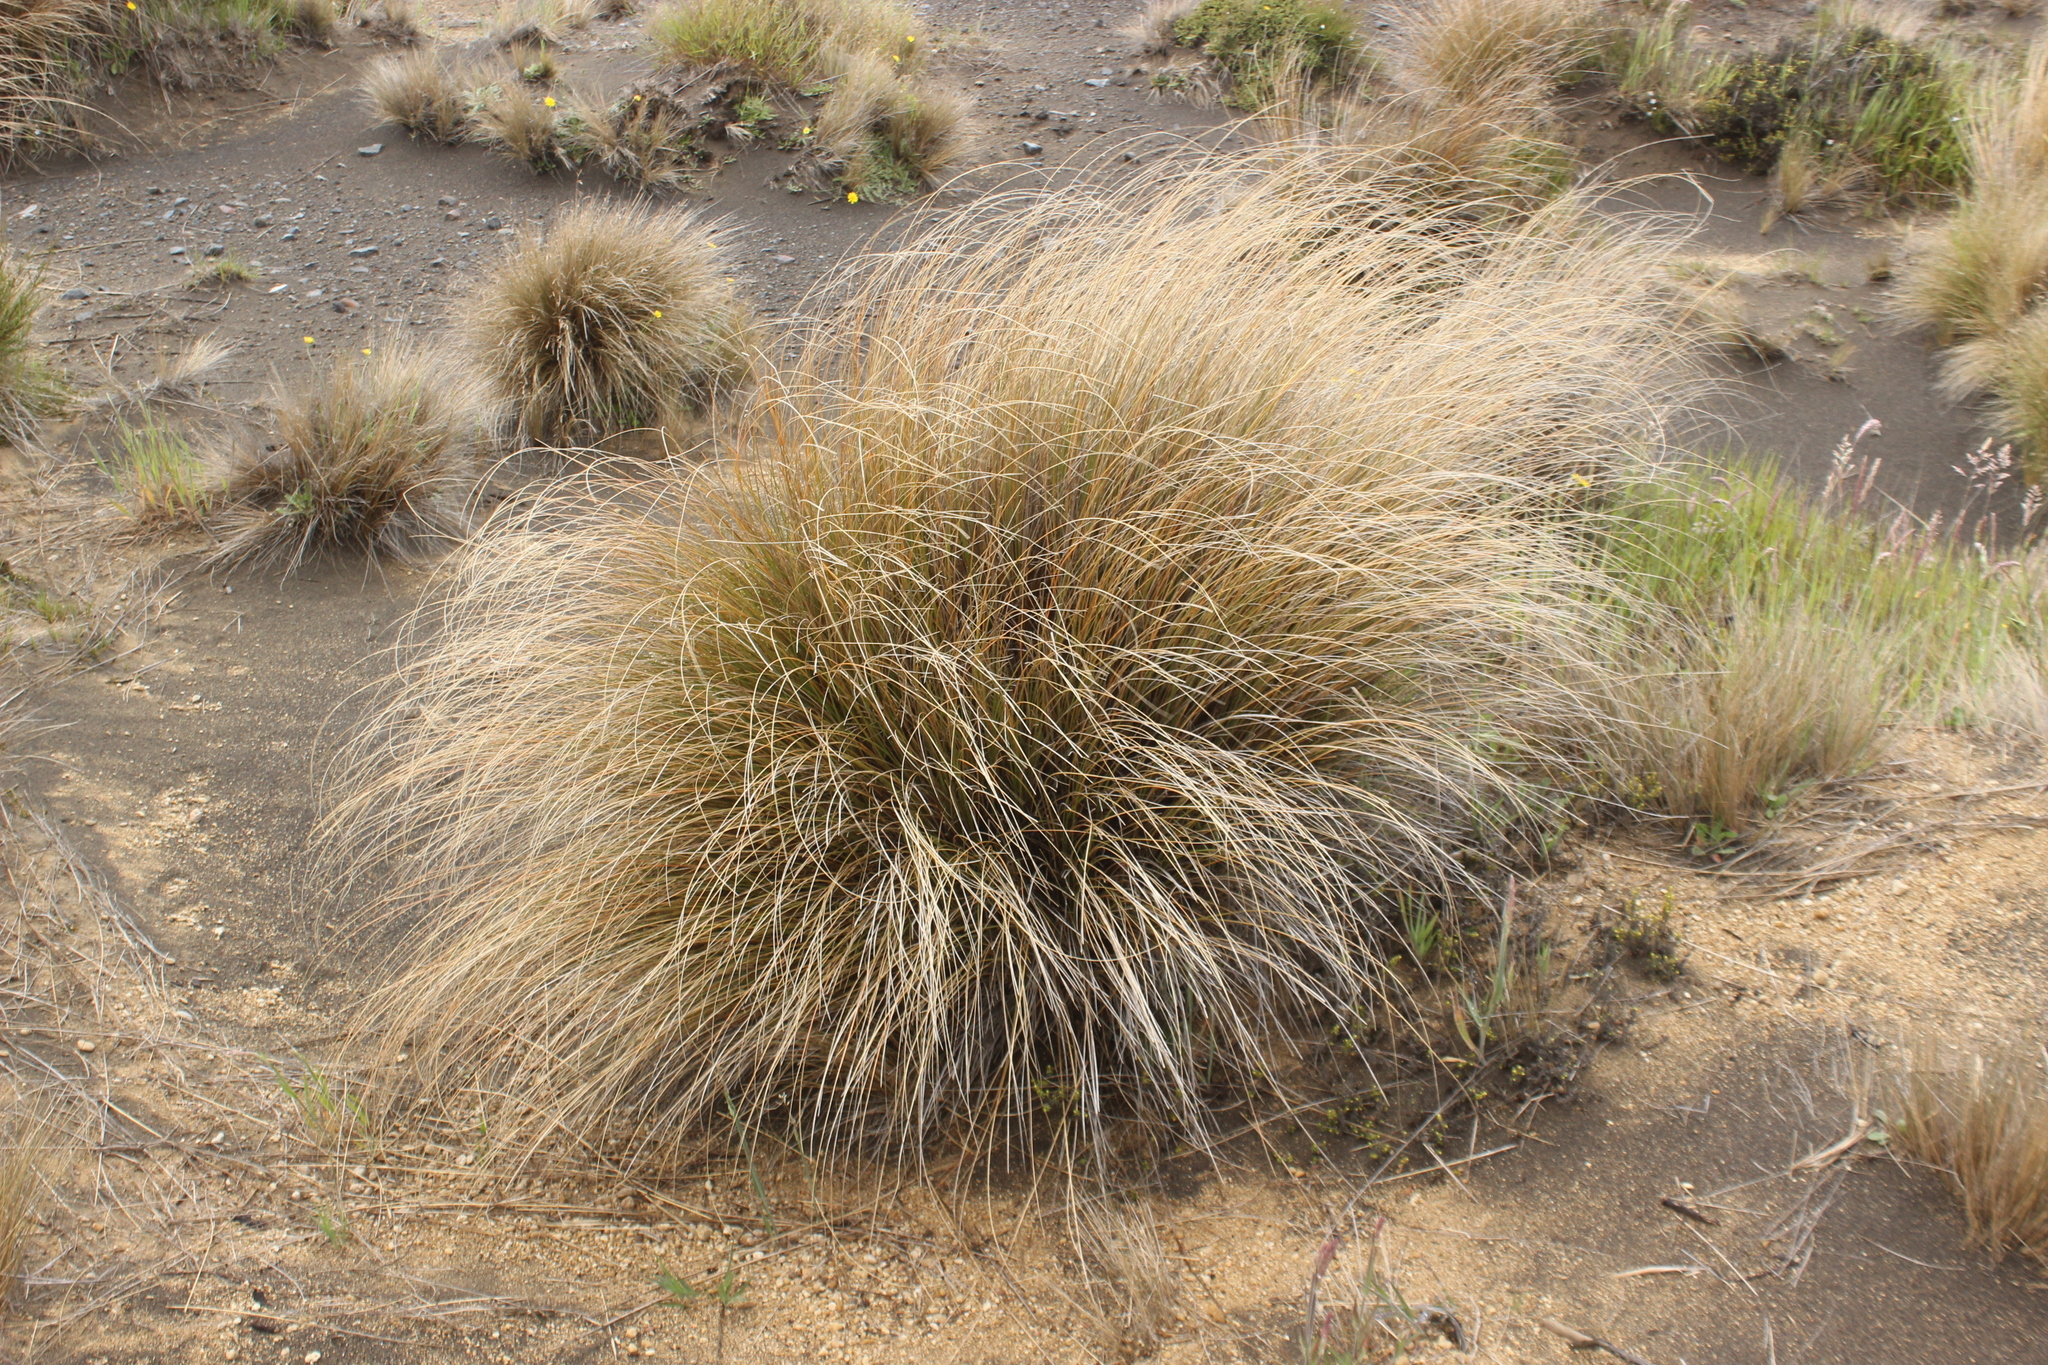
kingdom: Plantae
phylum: Tracheophyta
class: Liliopsida
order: Poales
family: Poaceae
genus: Chionochloa
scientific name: Chionochloa rubra
